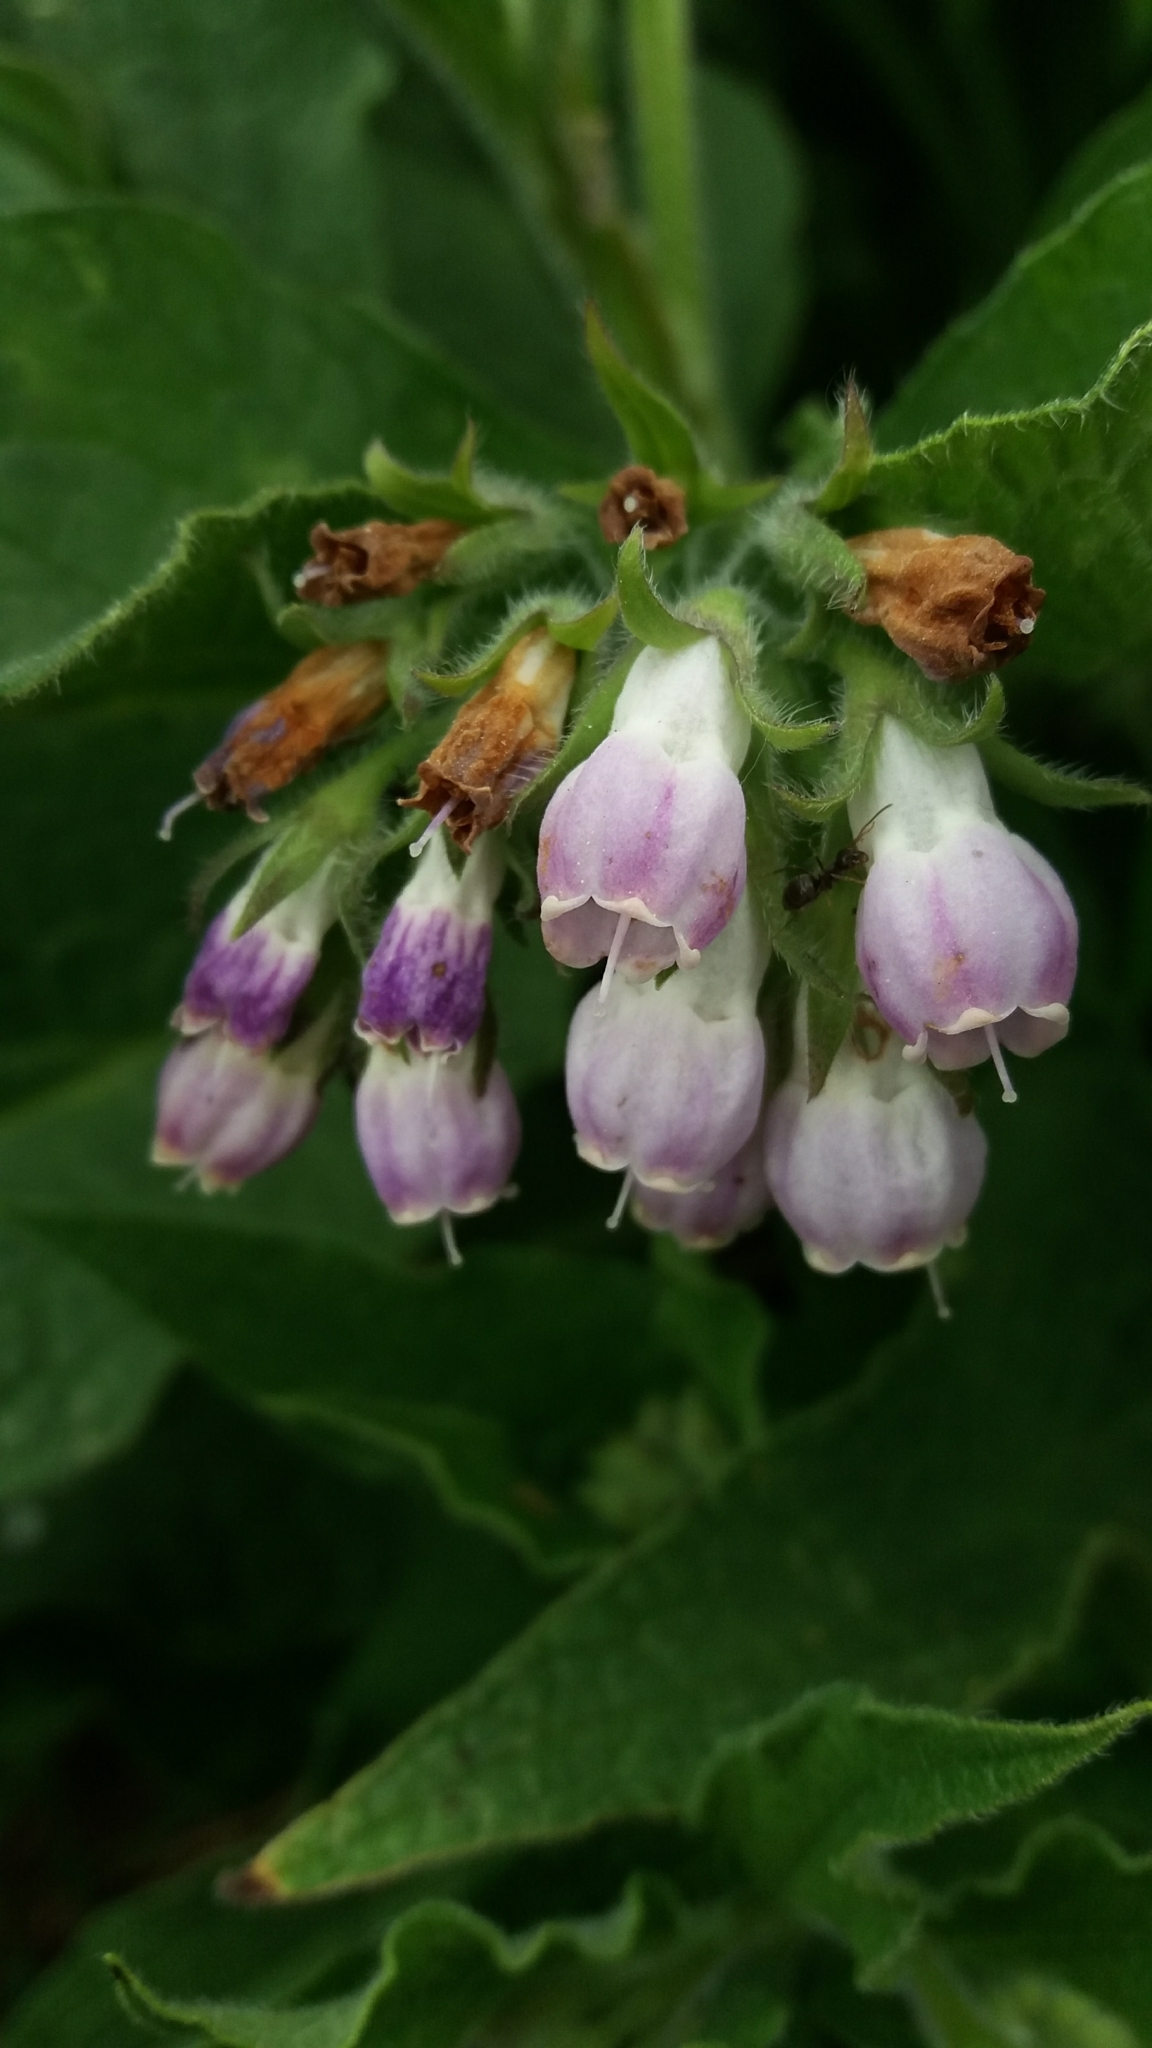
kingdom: Plantae
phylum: Tracheophyta
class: Magnoliopsida
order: Boraginales
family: Boraginaceae
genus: Symphytum
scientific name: Symphytum officinale
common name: Common comfrey
